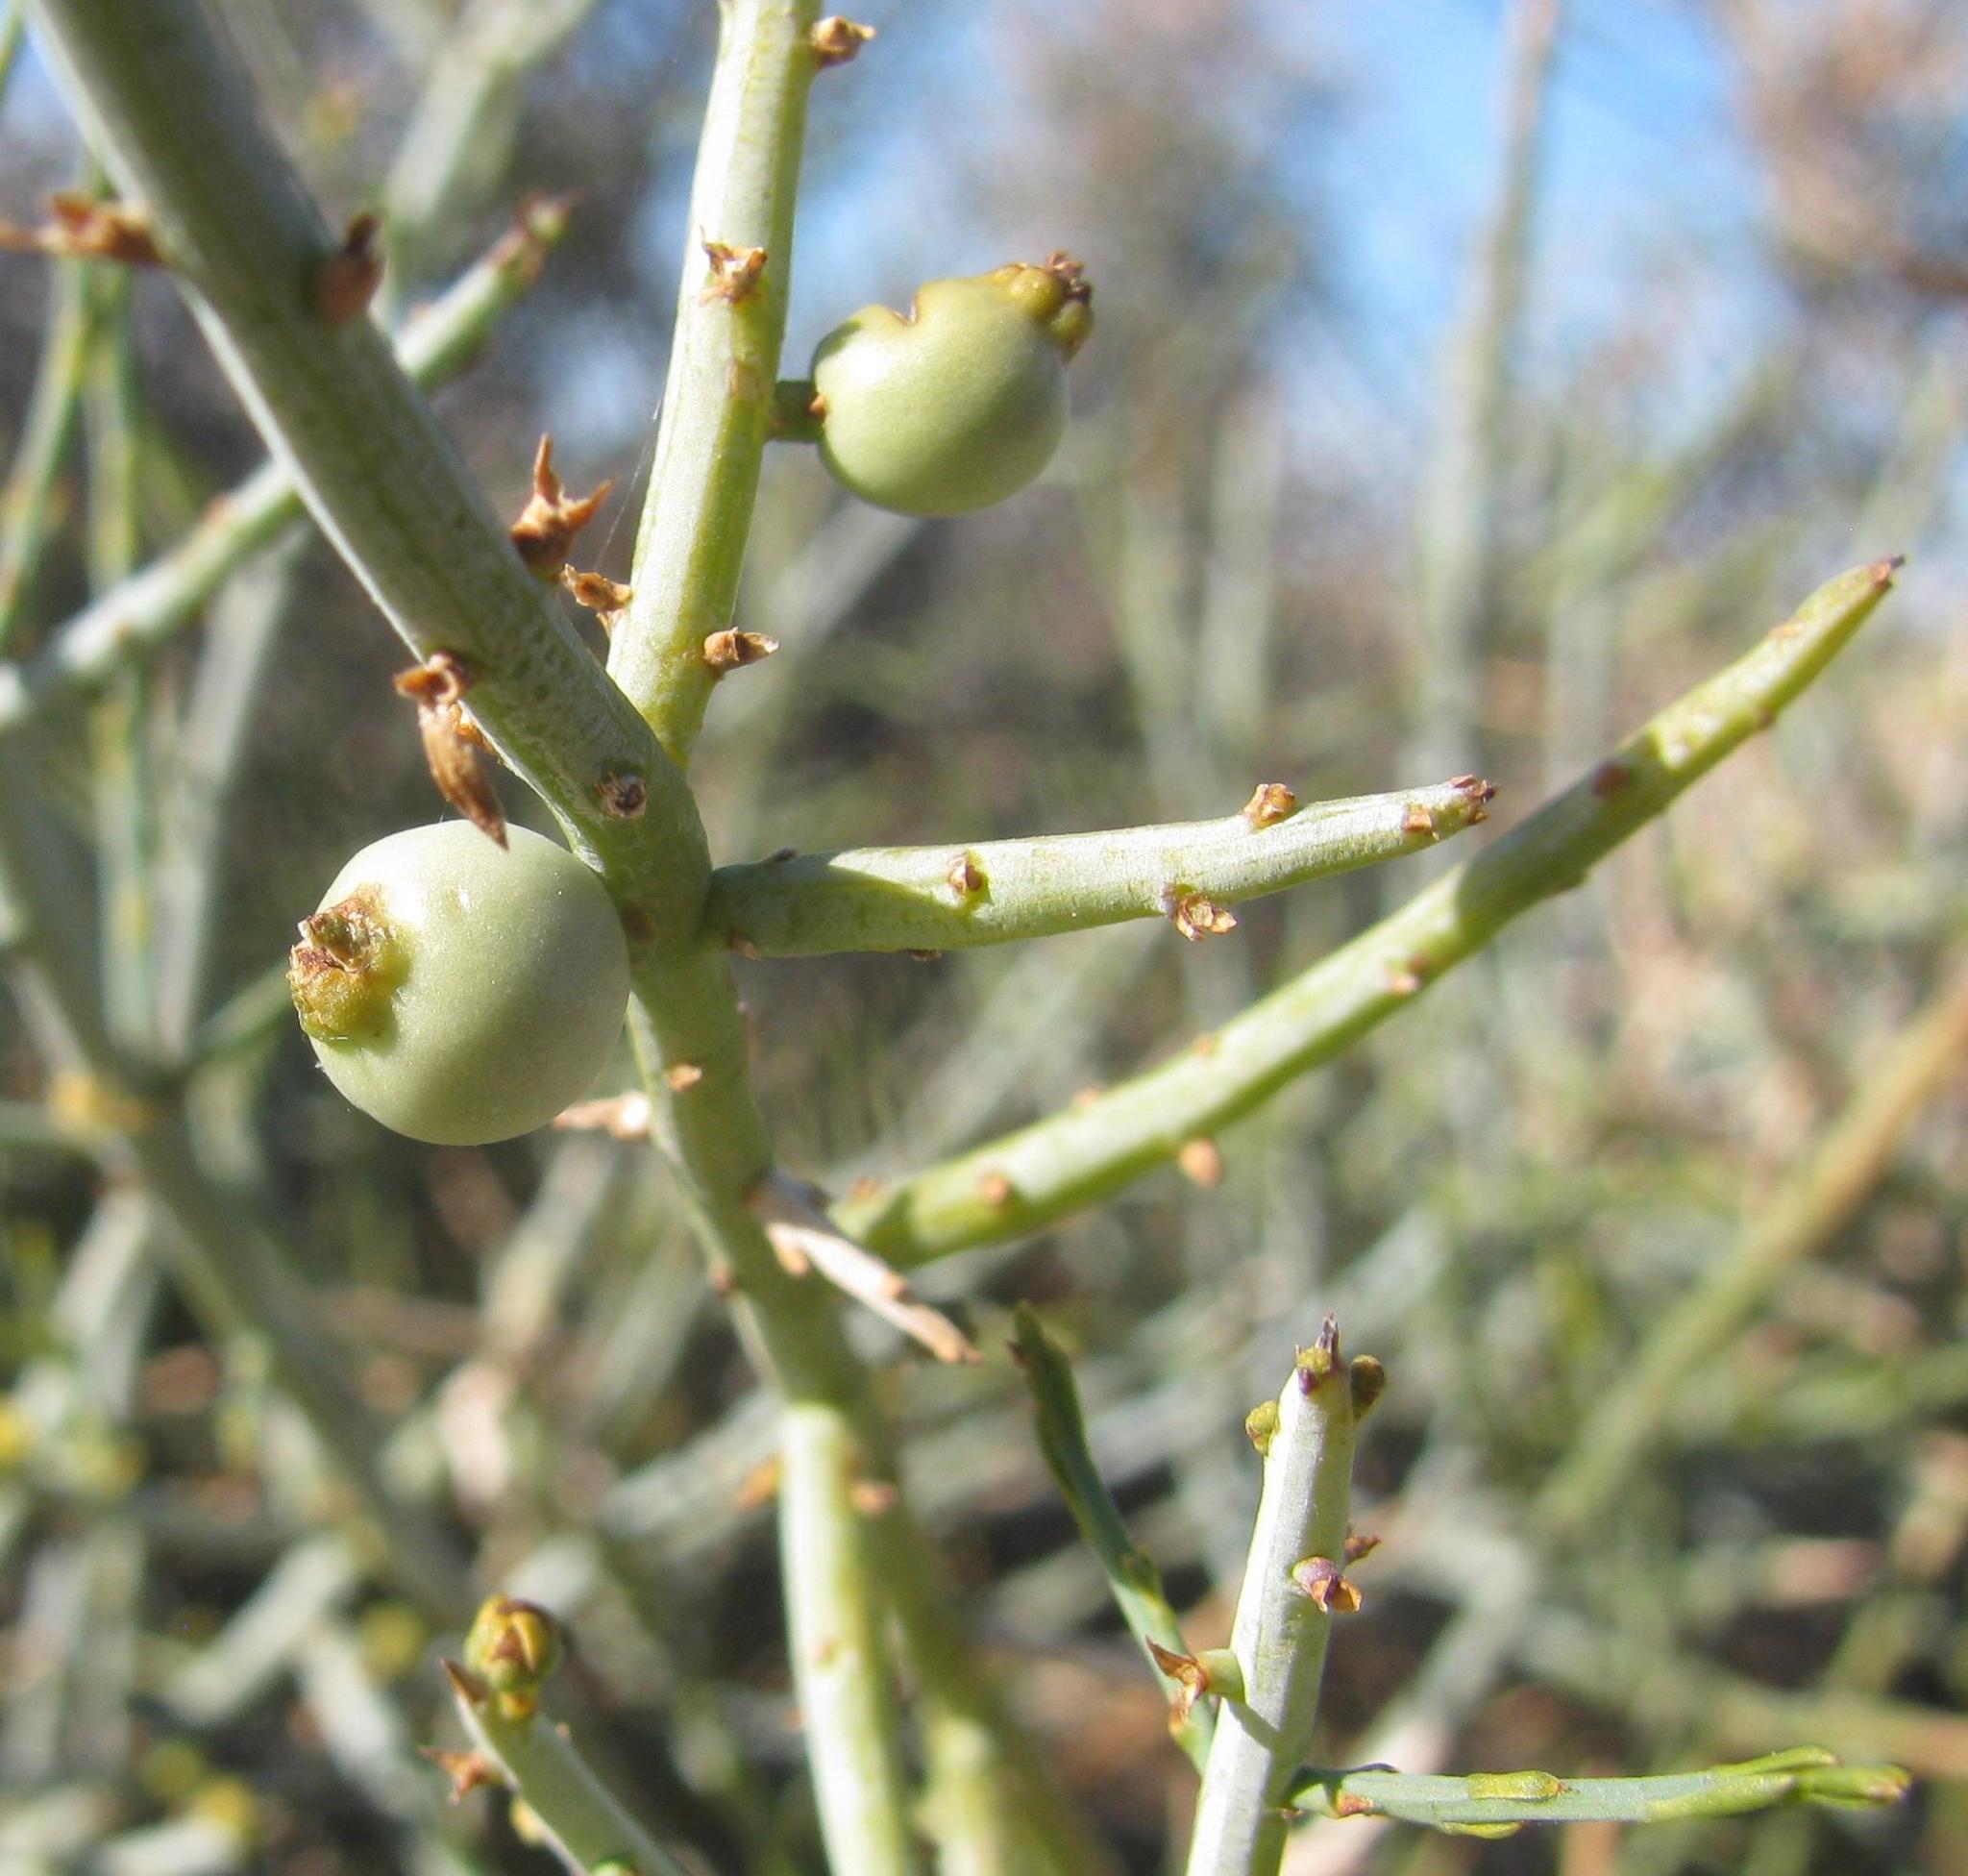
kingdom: Plantae
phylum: Tracheophyta
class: Magnoliopsida
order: Santalales
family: Thesiaceae
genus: Lacomucinaea
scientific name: Lacomucinaea lineata
